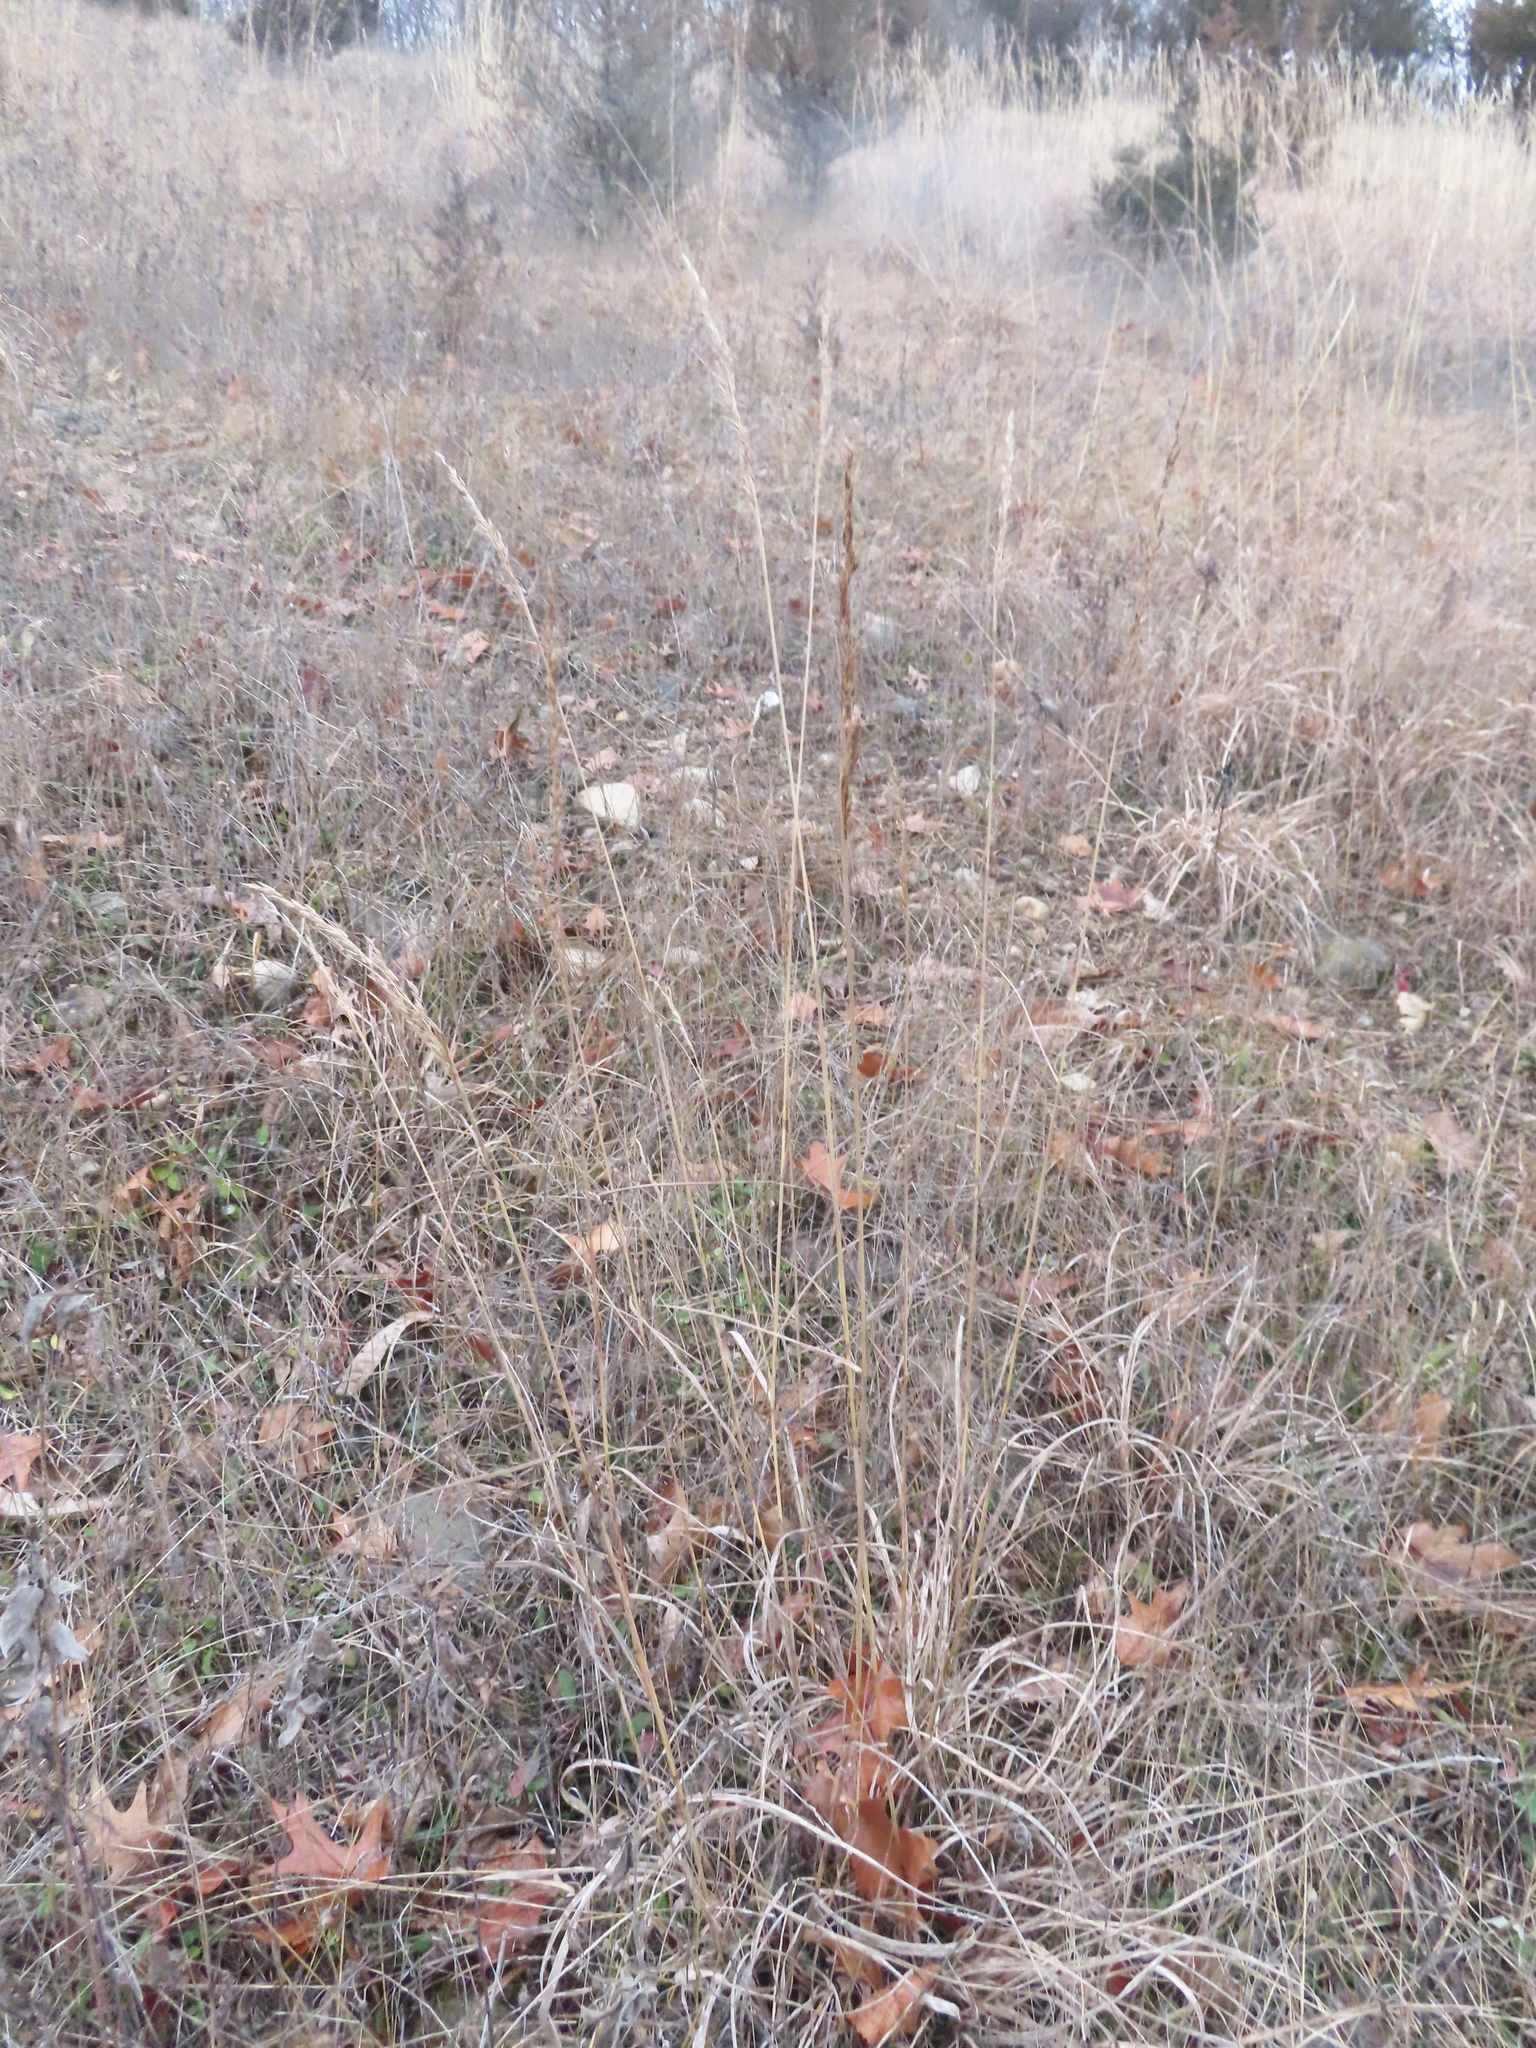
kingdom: Plantae
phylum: Tracheophyta
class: Liliopsida
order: Poales
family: Poaceae
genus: Sorghastrum
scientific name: Sorghastrum nutans
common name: Indian grass
